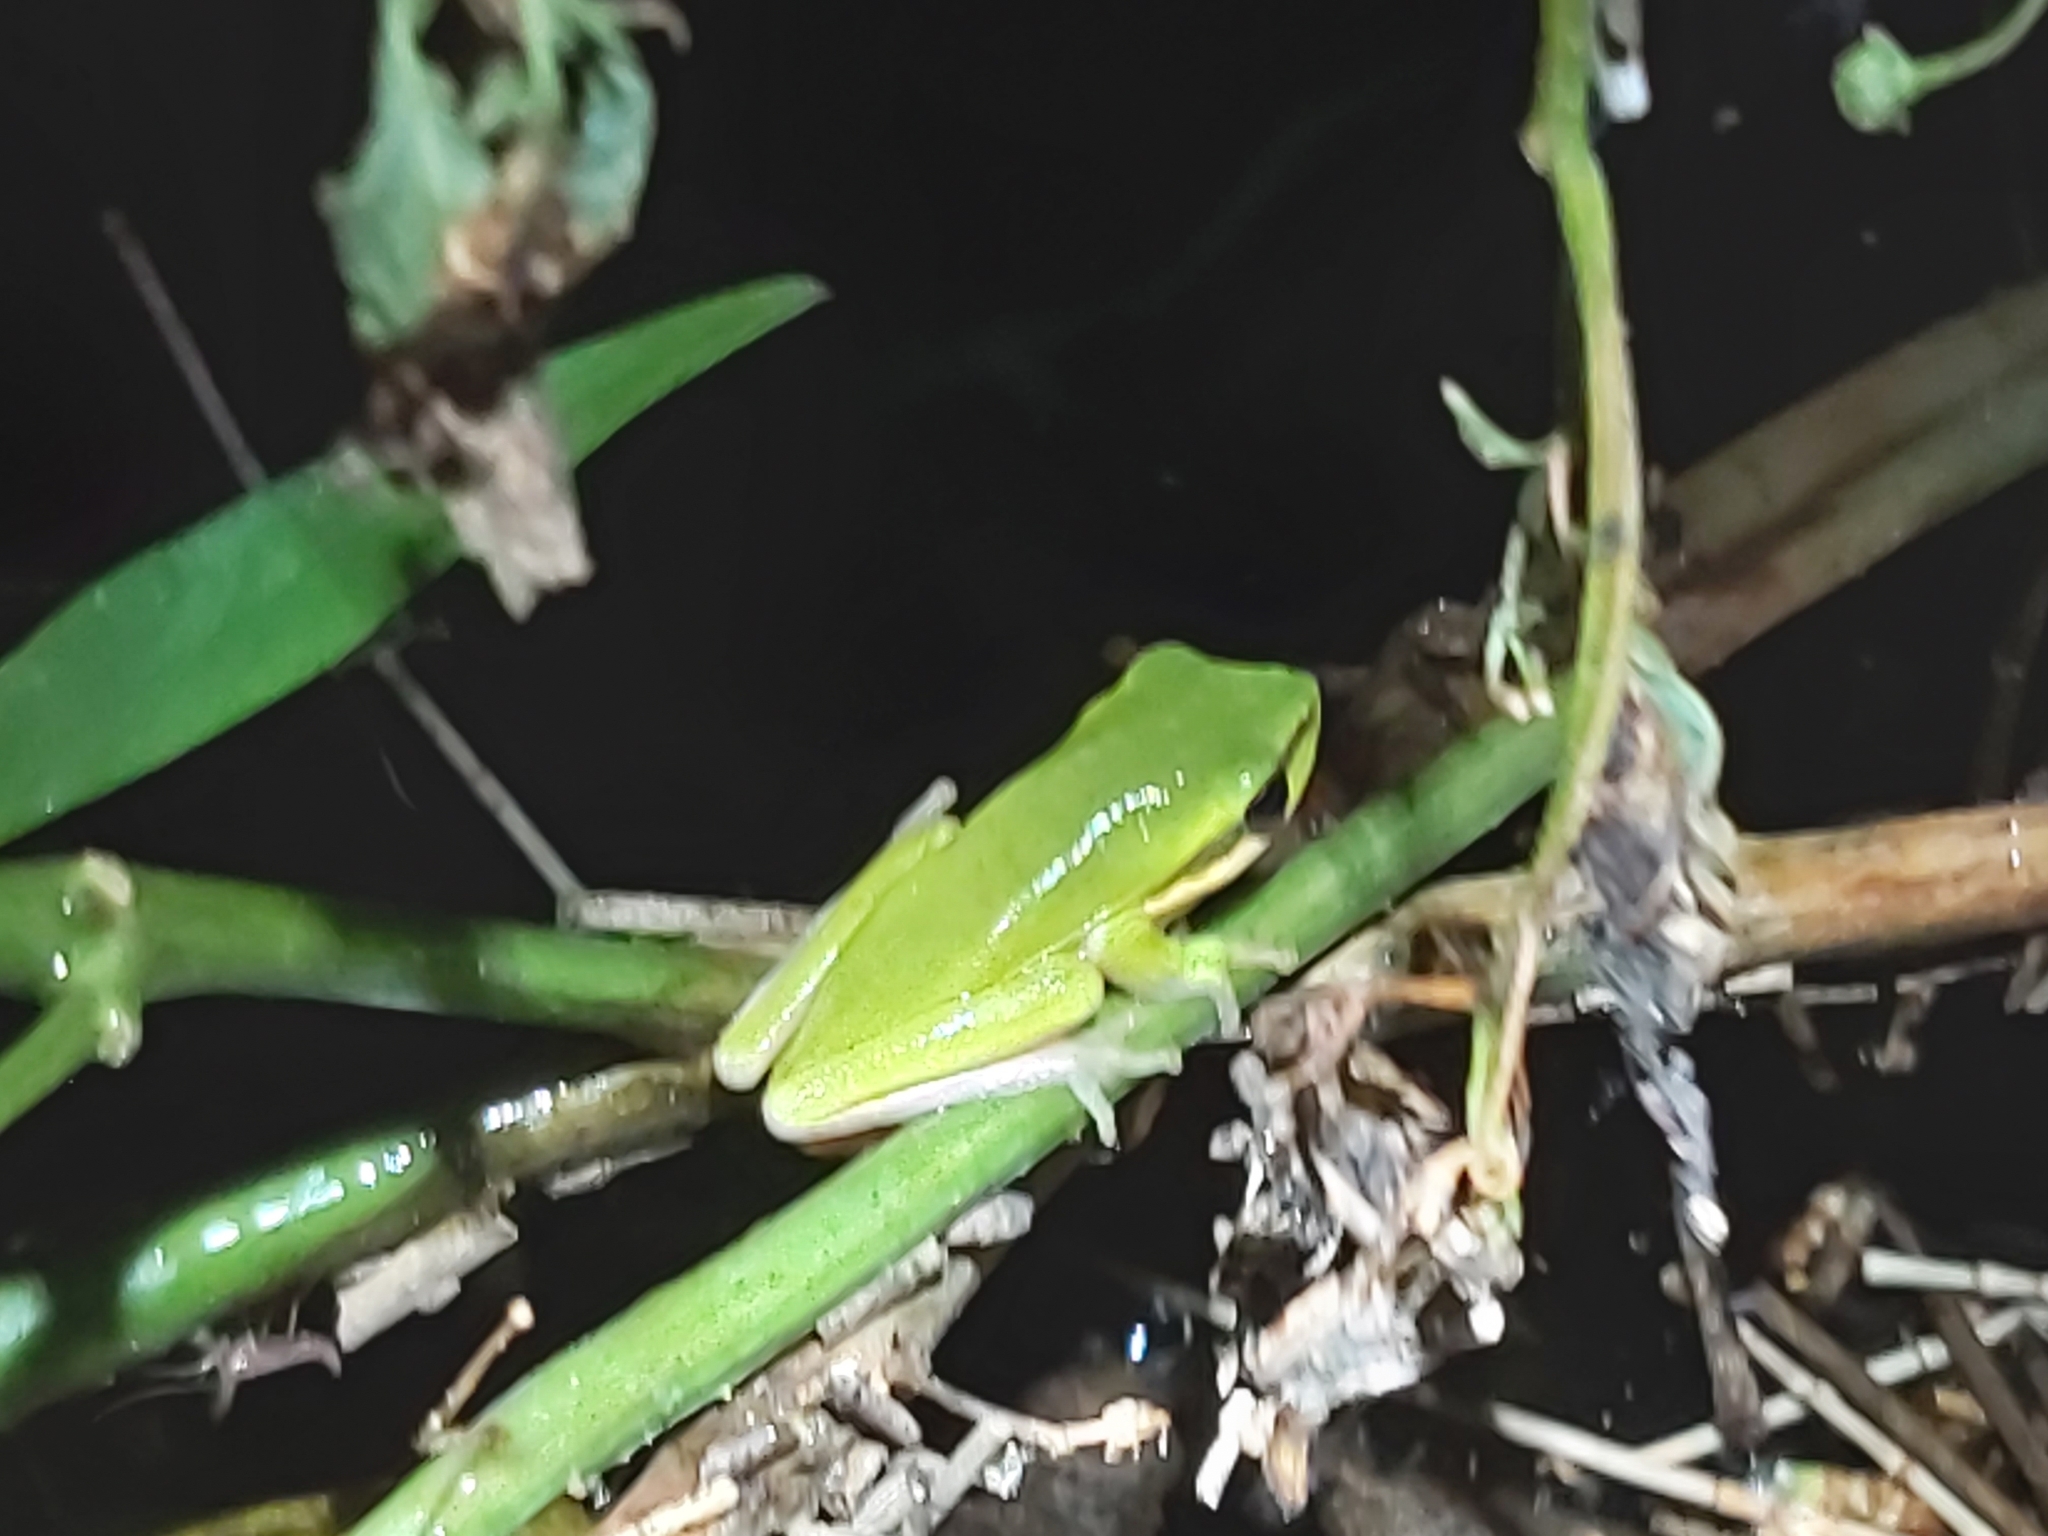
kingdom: Animalia
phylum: Chordata
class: Amphibia
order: Anura
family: Pelodryadidae
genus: Litoria
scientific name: Litoria fallax
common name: Eastern dwarf treefrog
